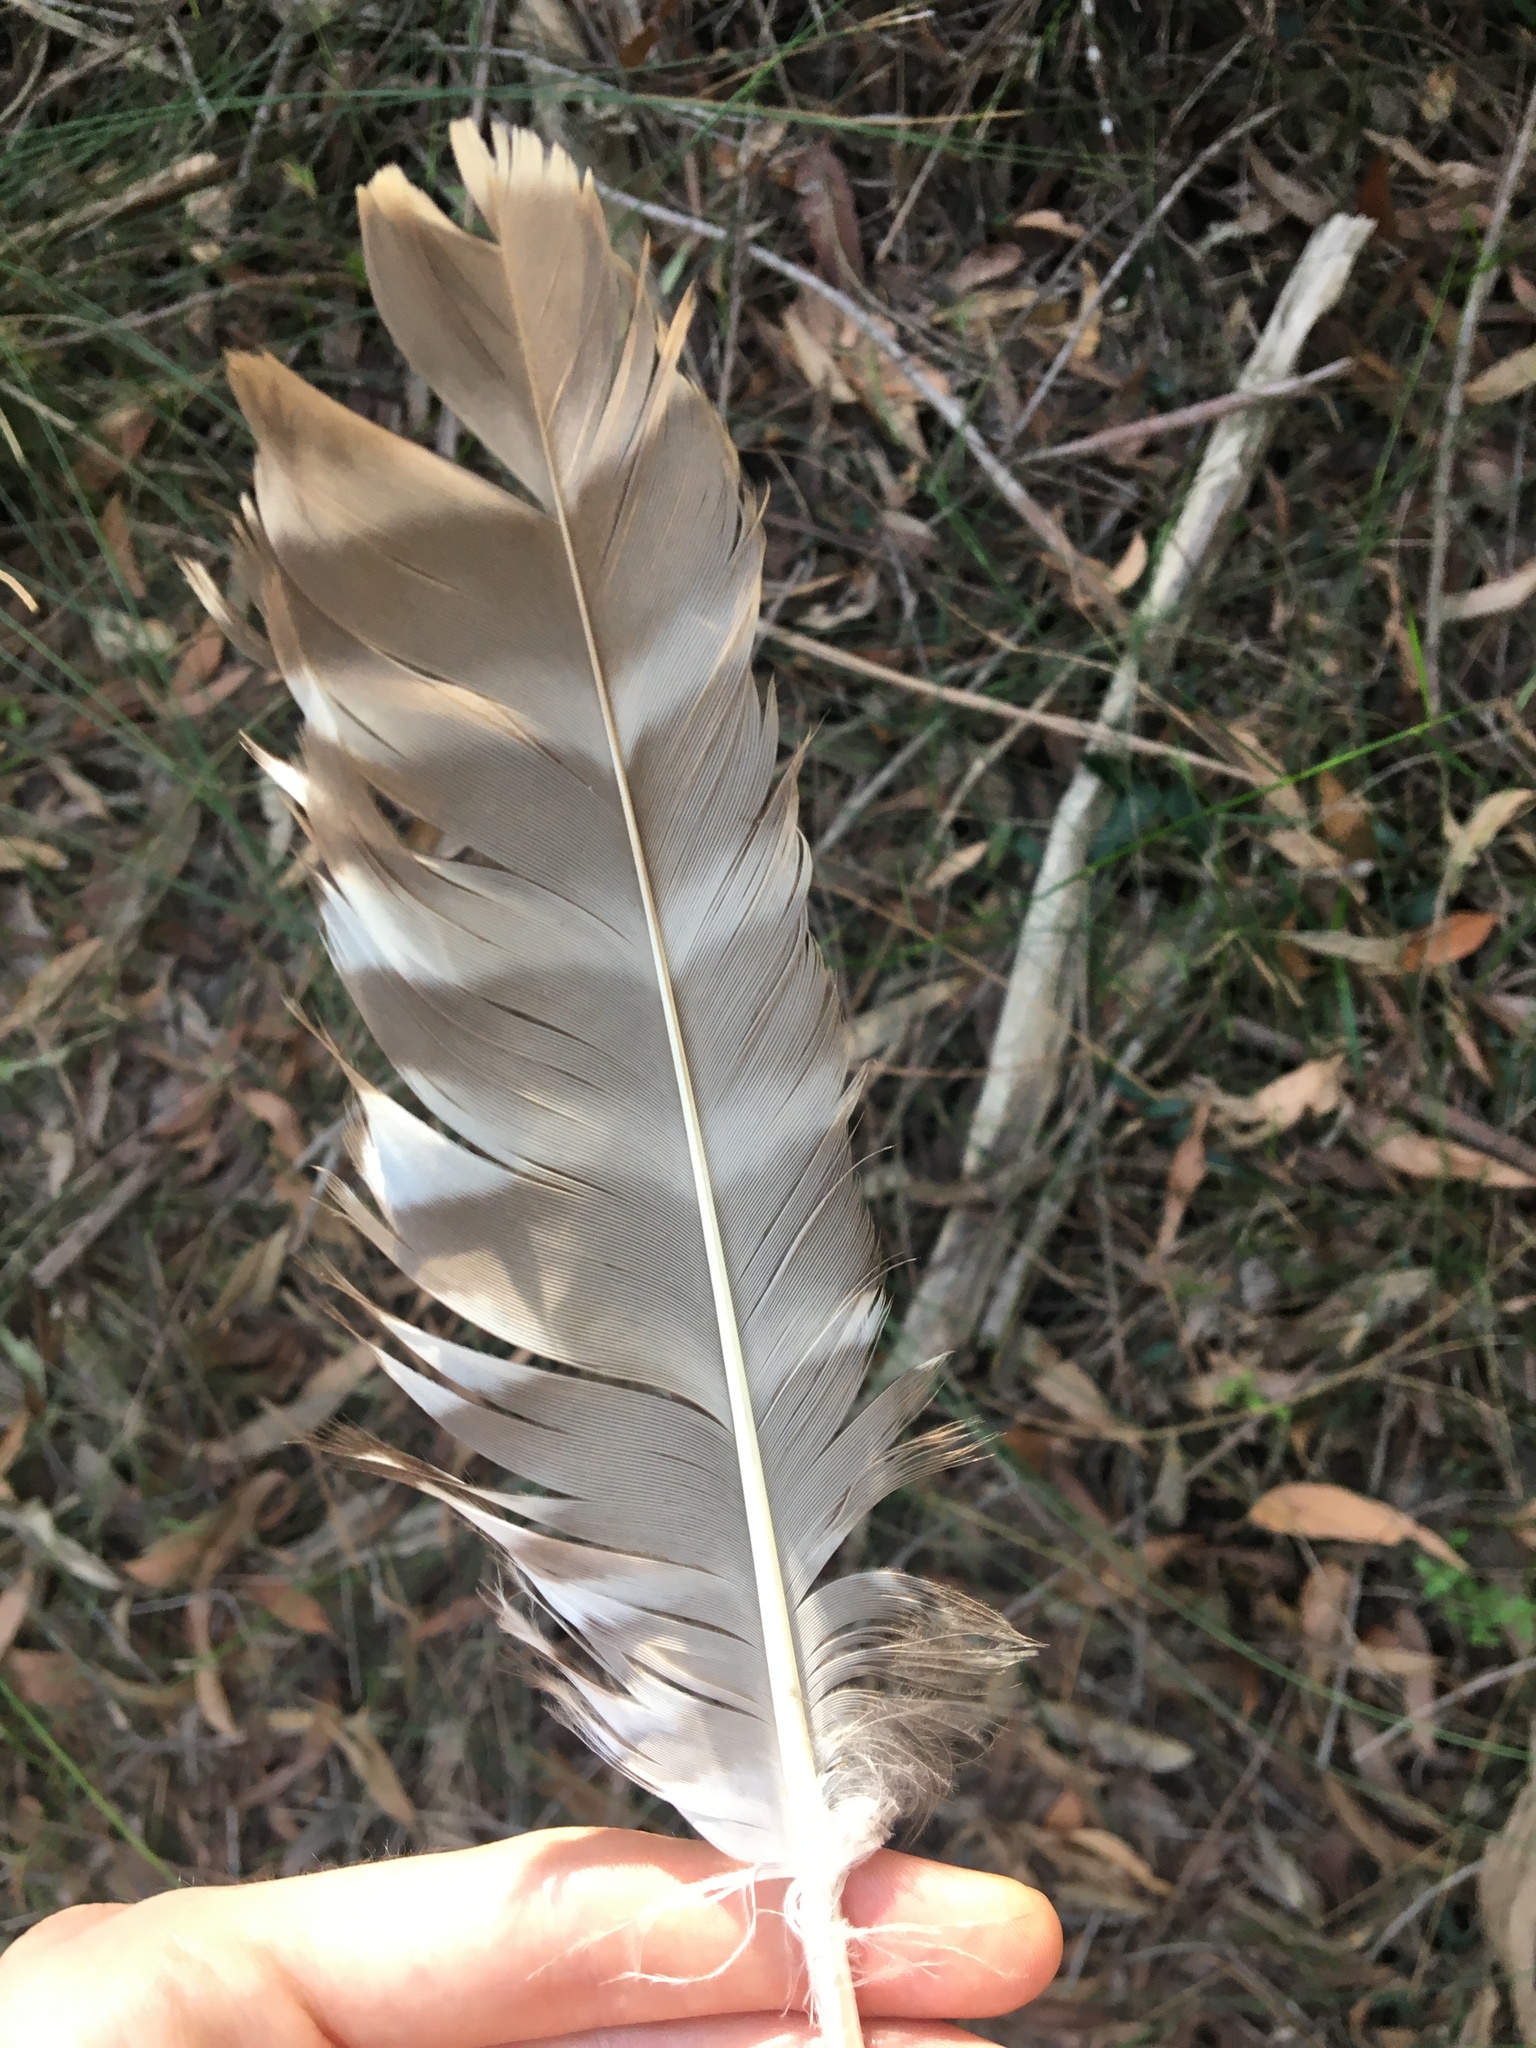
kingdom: Animalia
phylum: Chordata
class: Aves
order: Strigiformes
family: Strigidae
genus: Ninox
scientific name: Ninox strenua
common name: Powerful owl
